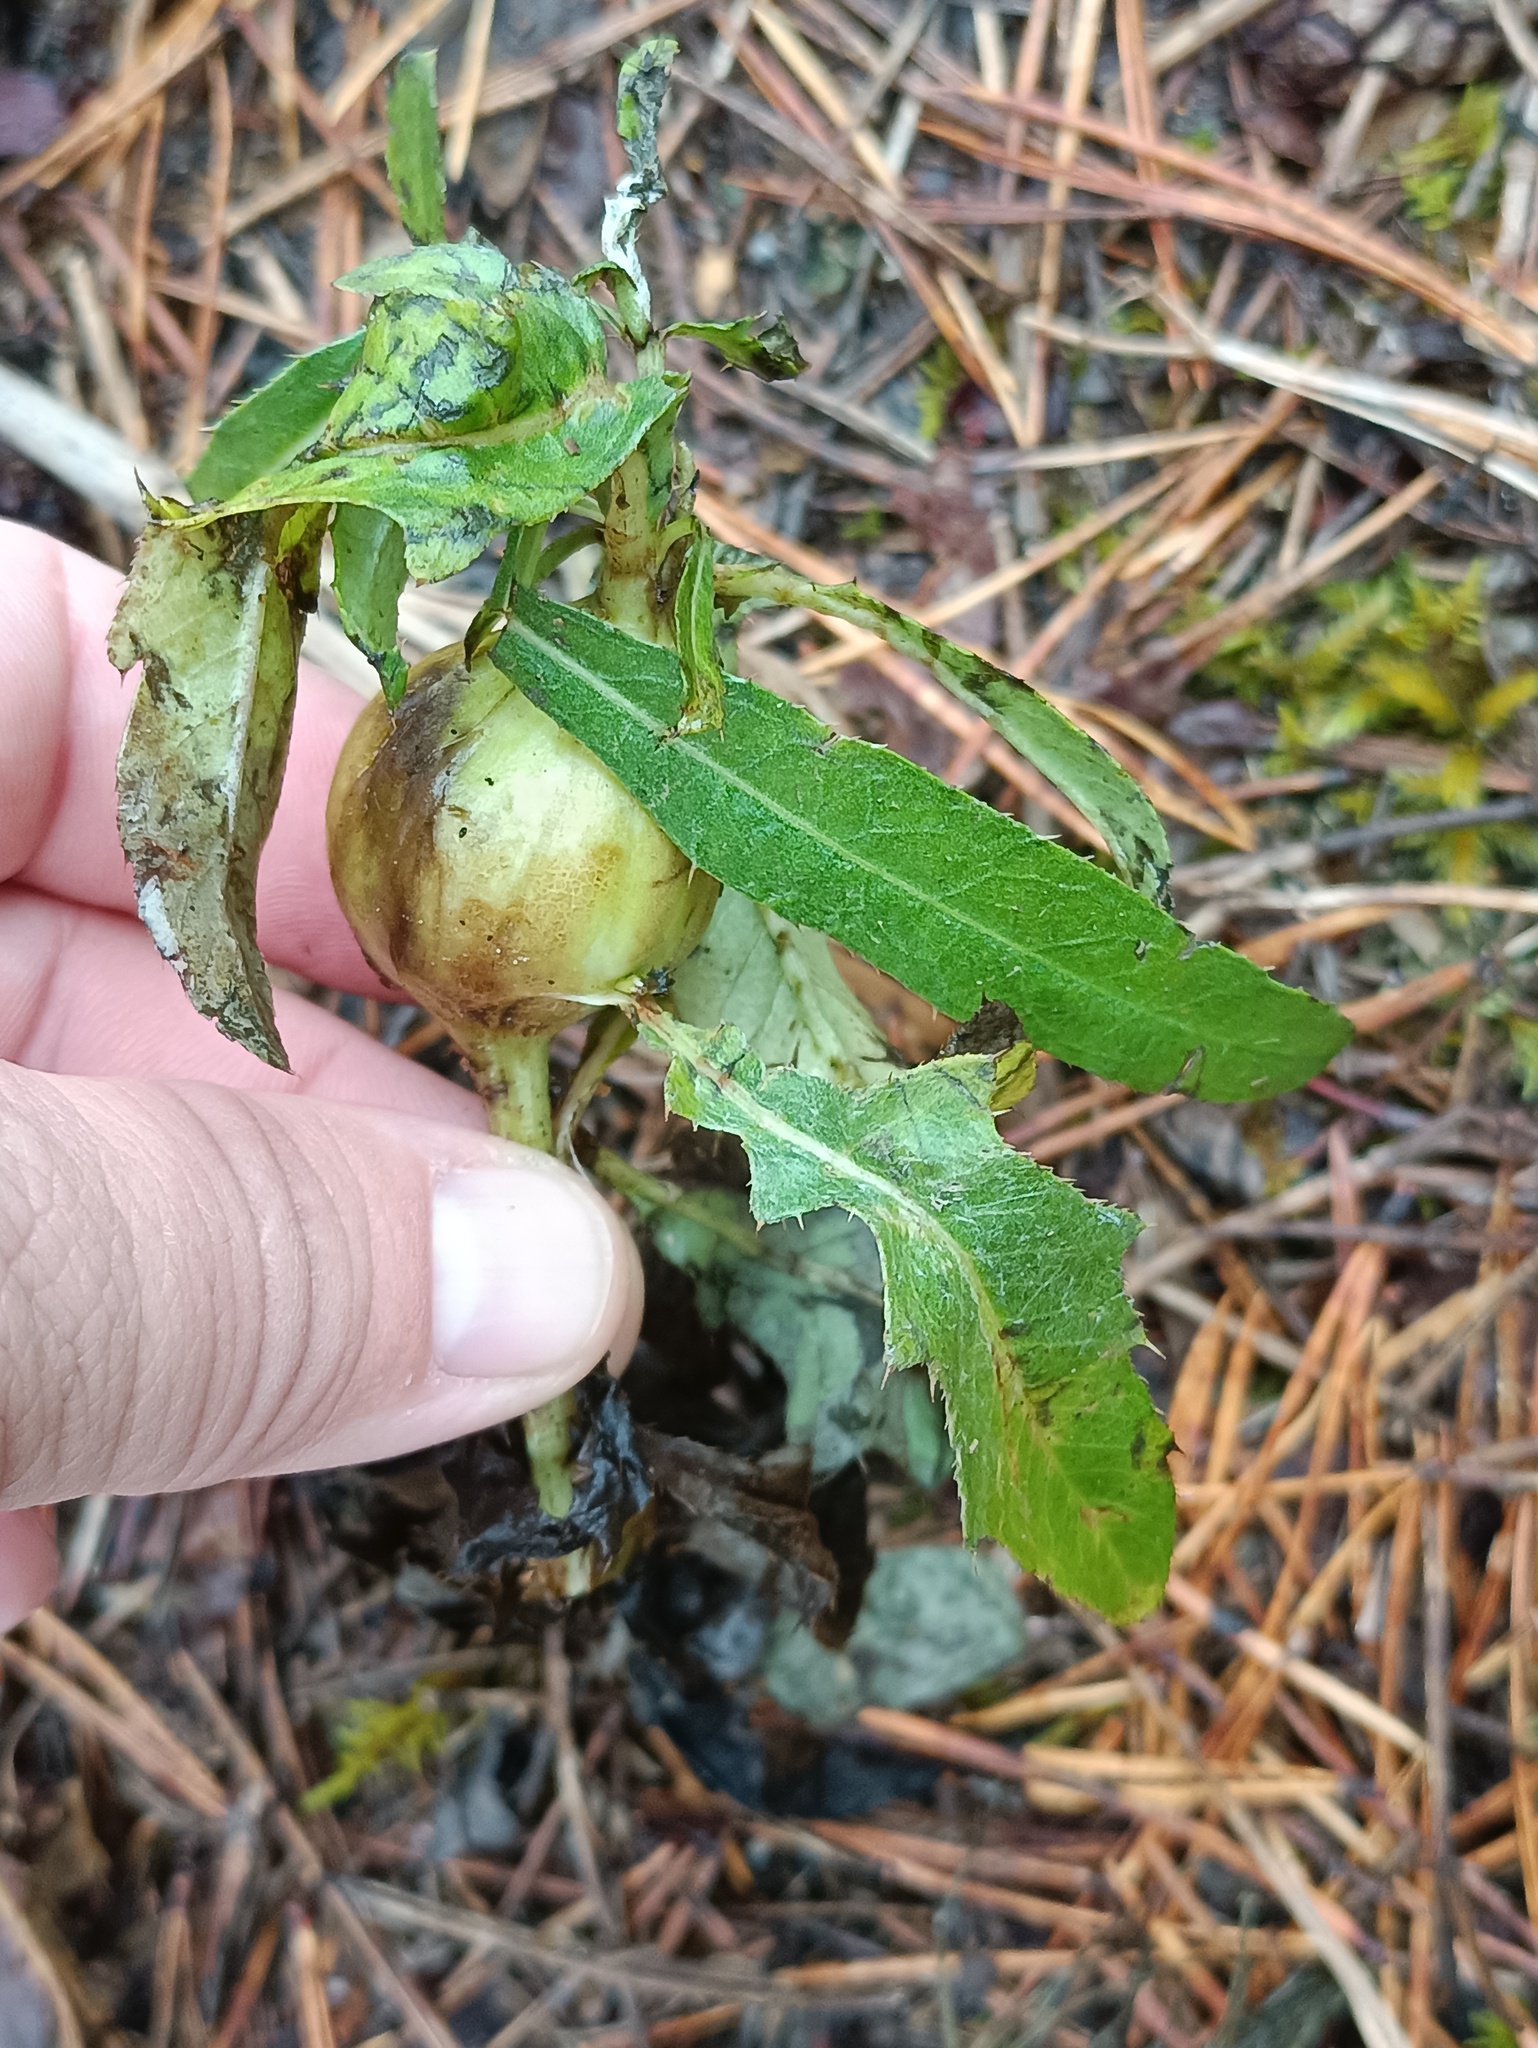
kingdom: Animalia
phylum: Arthropoda
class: Insecta
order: Diptera
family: Tephritidae
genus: Urophora
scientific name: Urophora cardui
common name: Fruit fly
